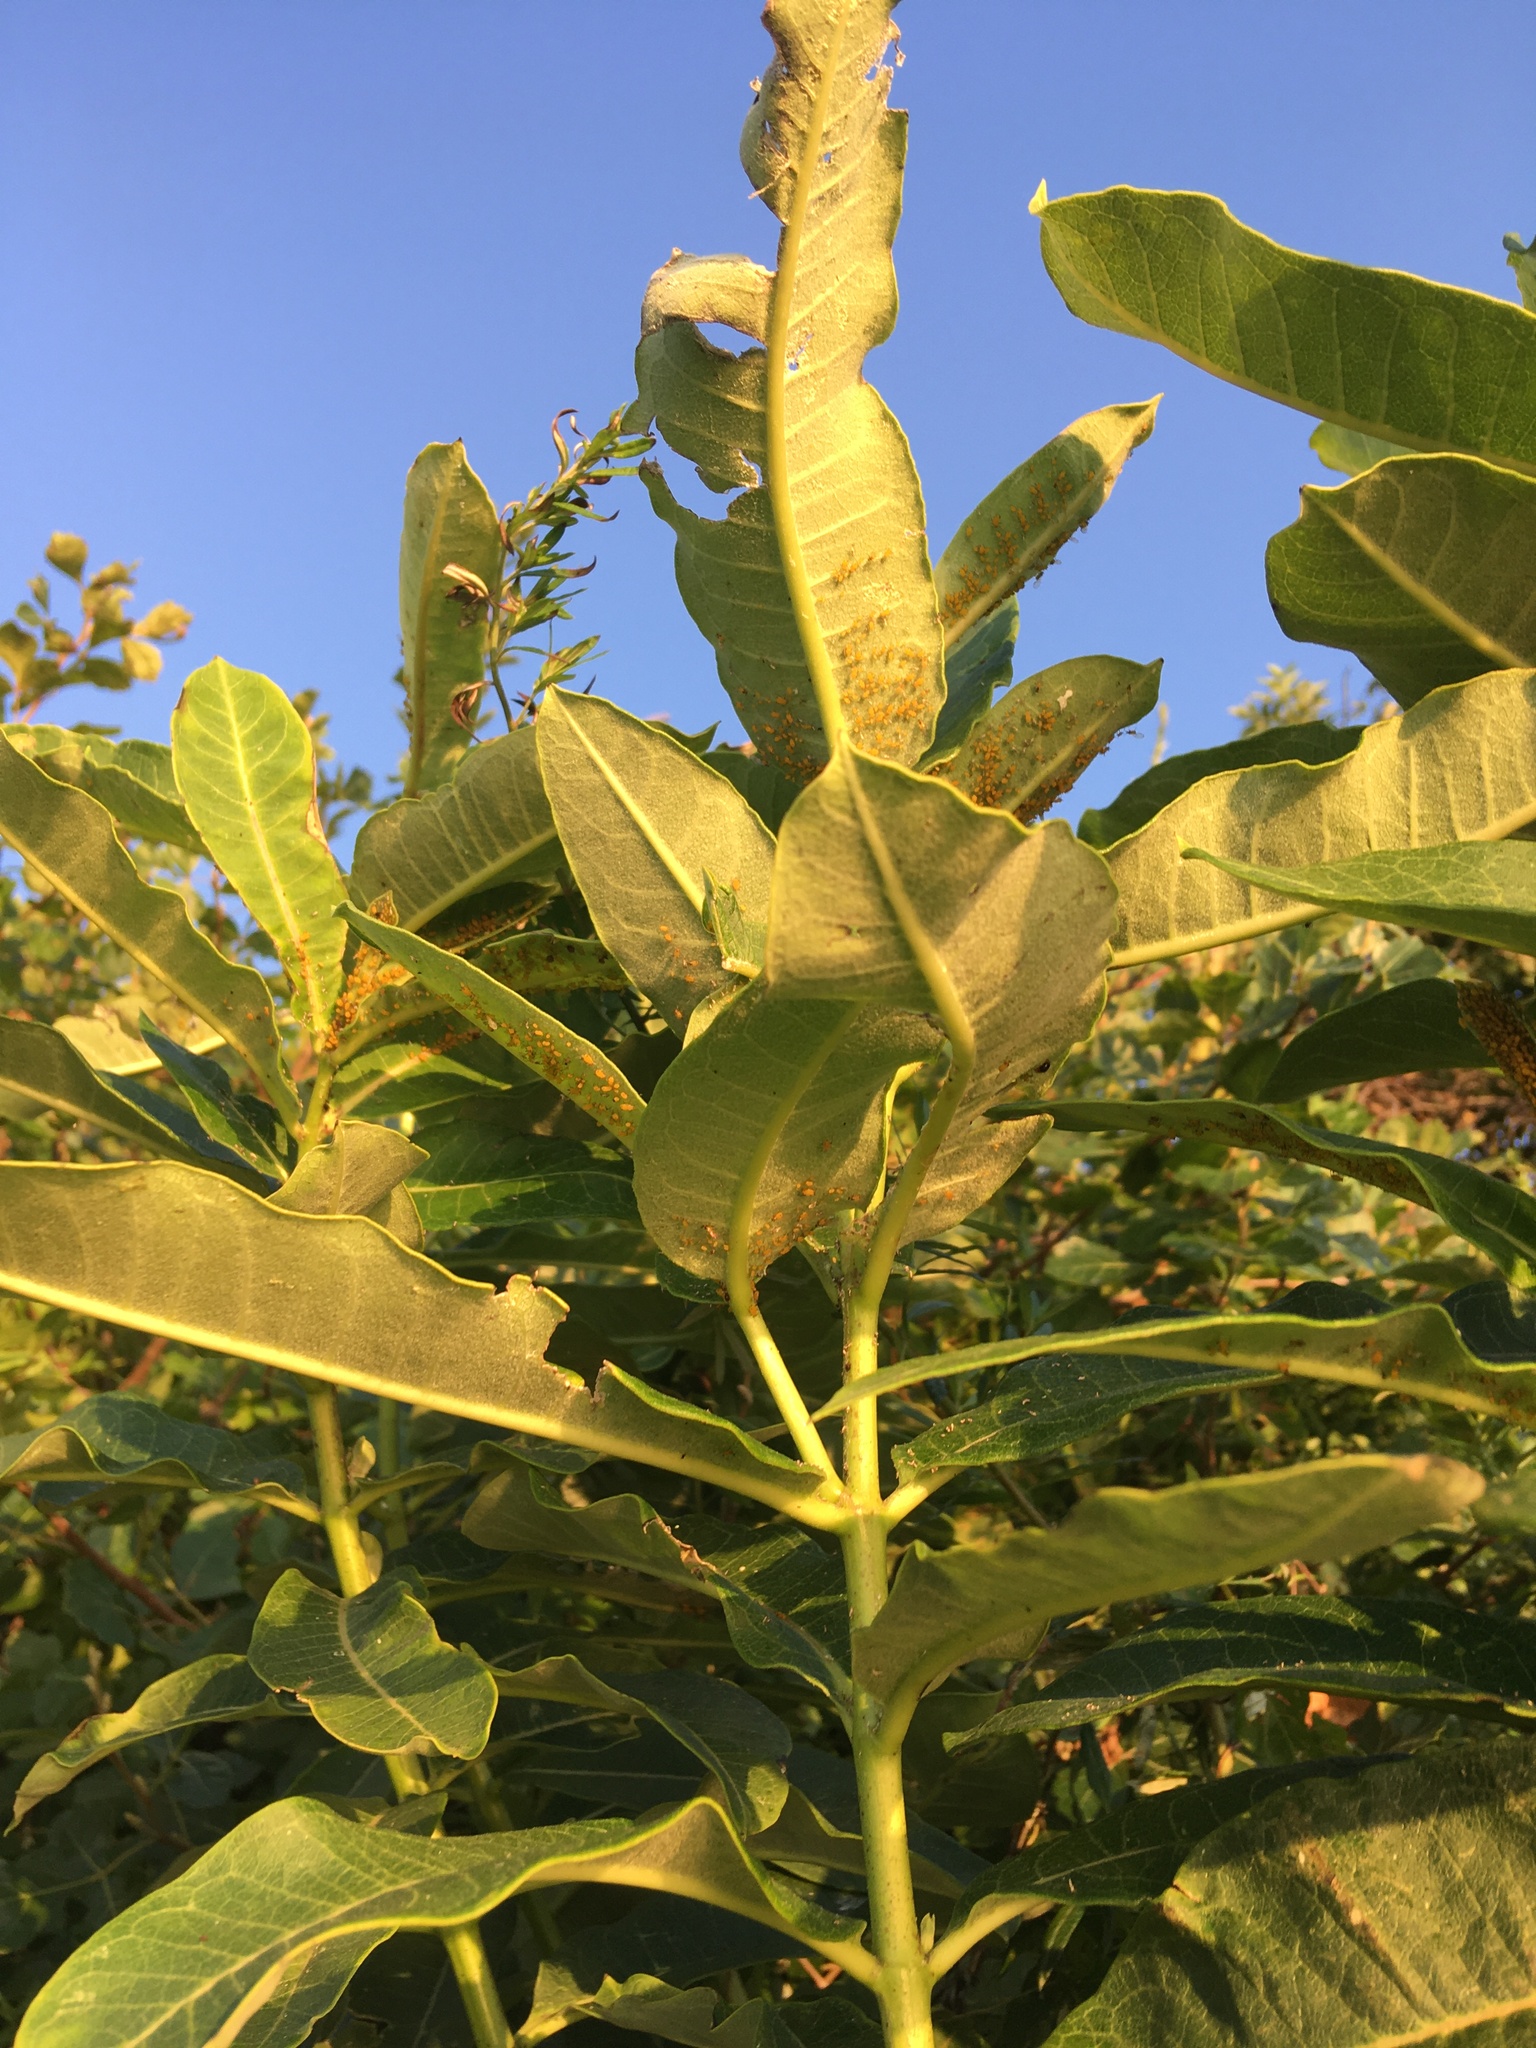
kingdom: Plantae
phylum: Tracheophyta
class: Magnoliopsida
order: Gentianales
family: Apocynaceae
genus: Asclepias
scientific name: Asclepias syriaca
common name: Common milkweed
